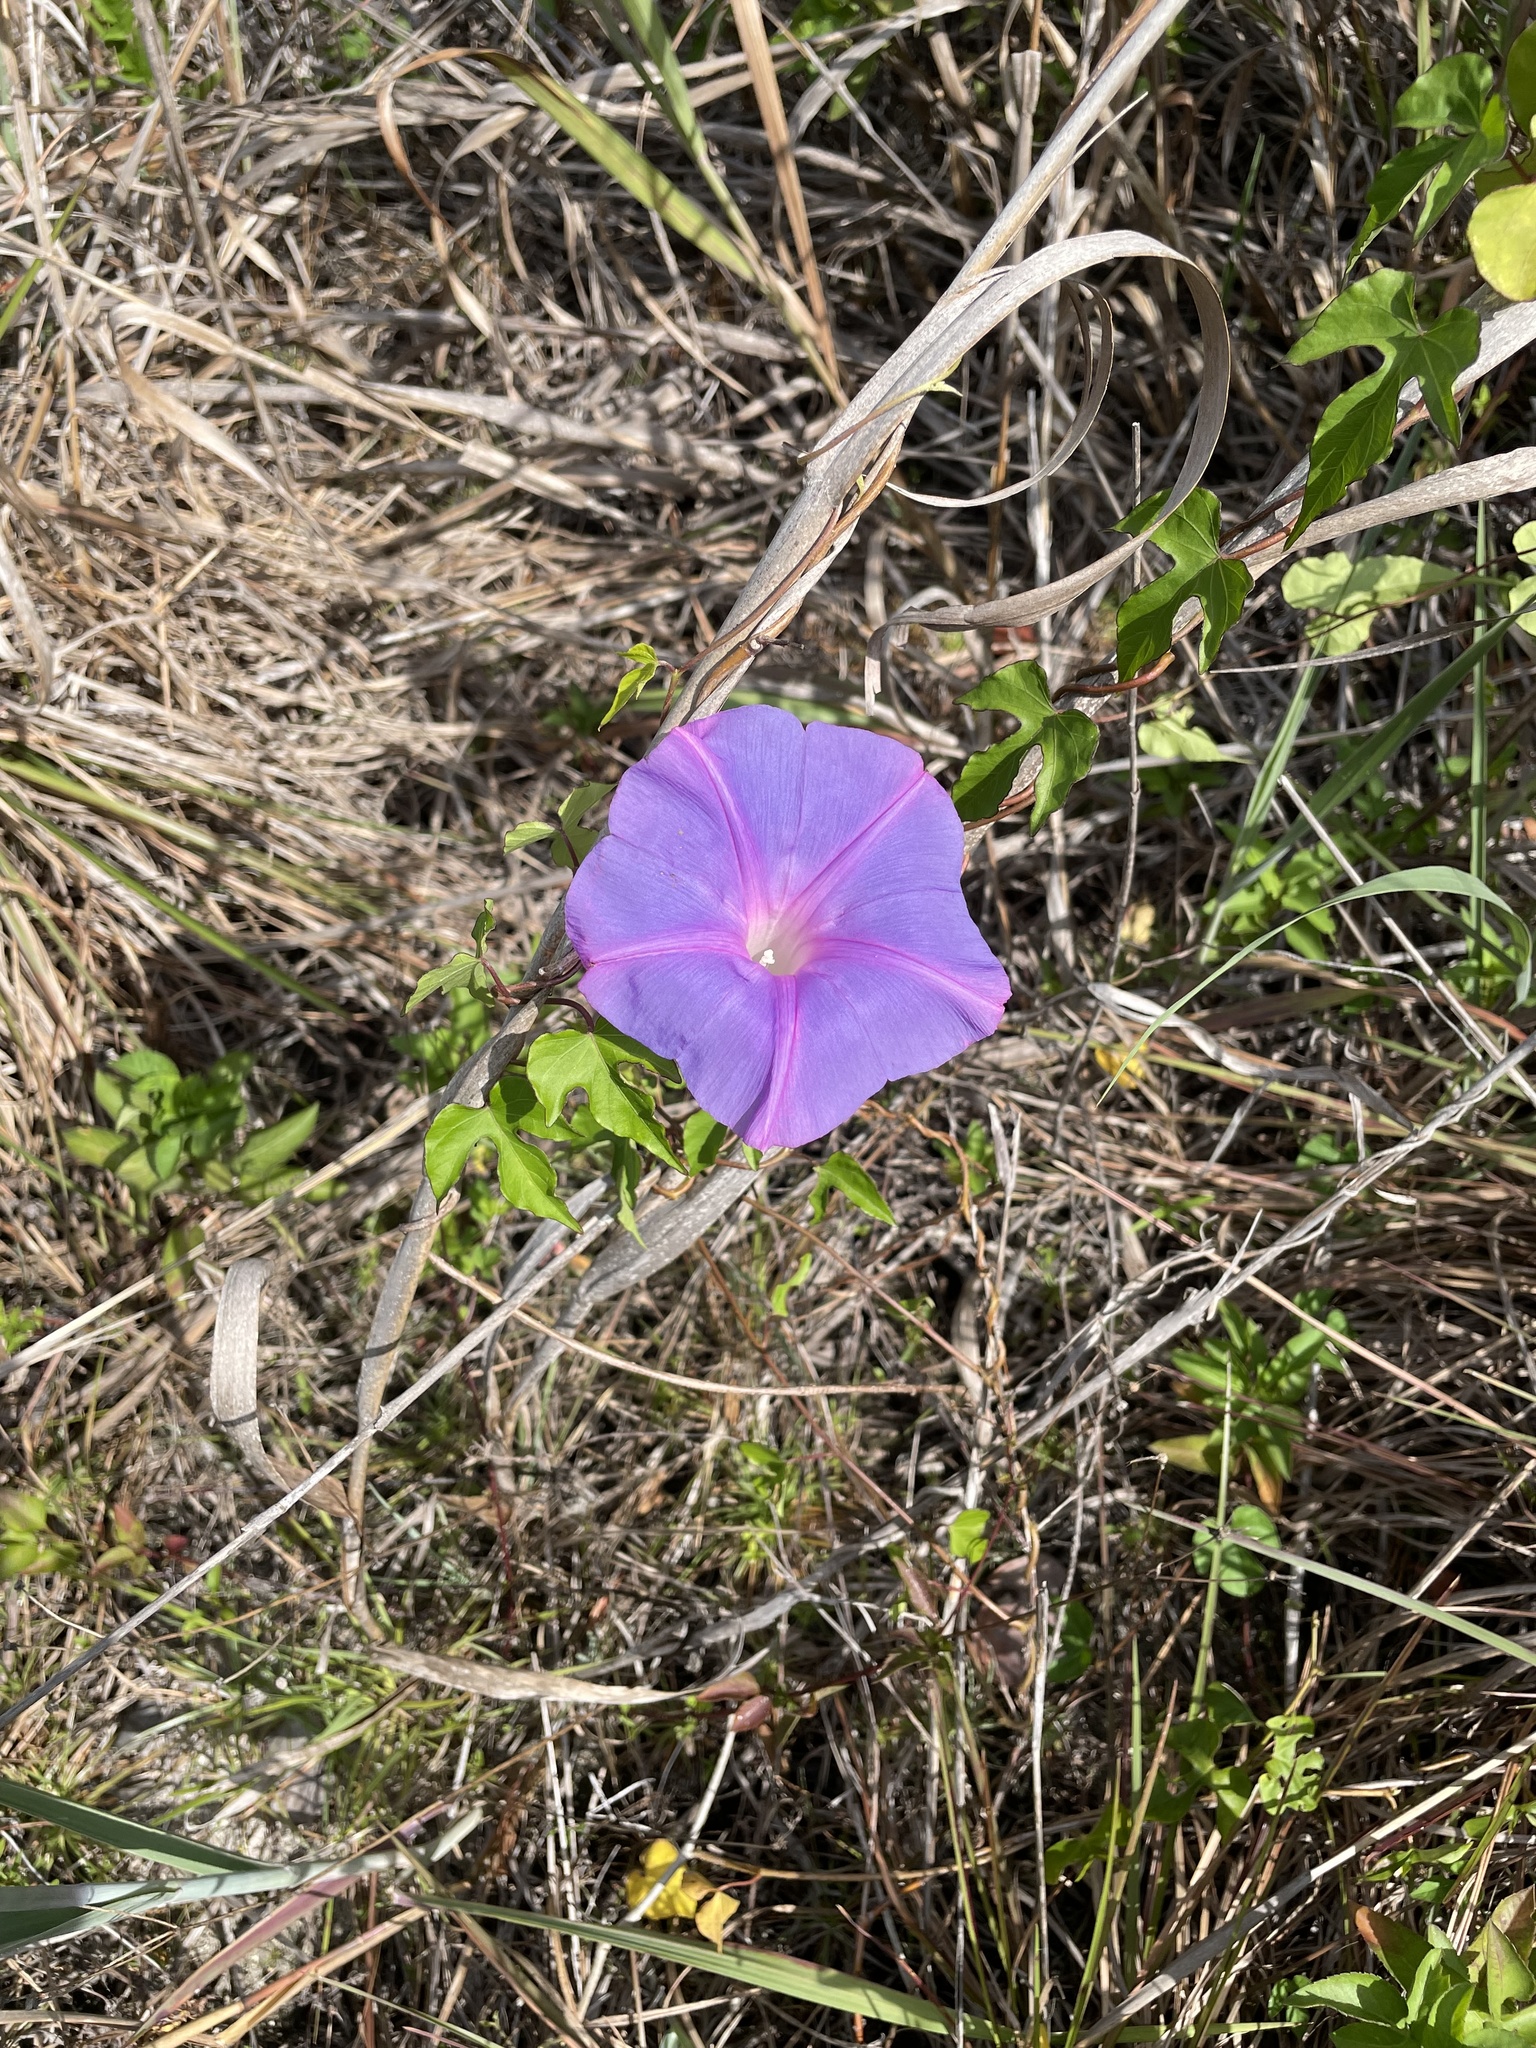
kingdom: Plantae
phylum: Tracheophyta
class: Magnoliopsida
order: Solanales
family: Convolvulaceae
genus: Ipomoea
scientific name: Ipomoea indica
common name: Blue dawnflower
